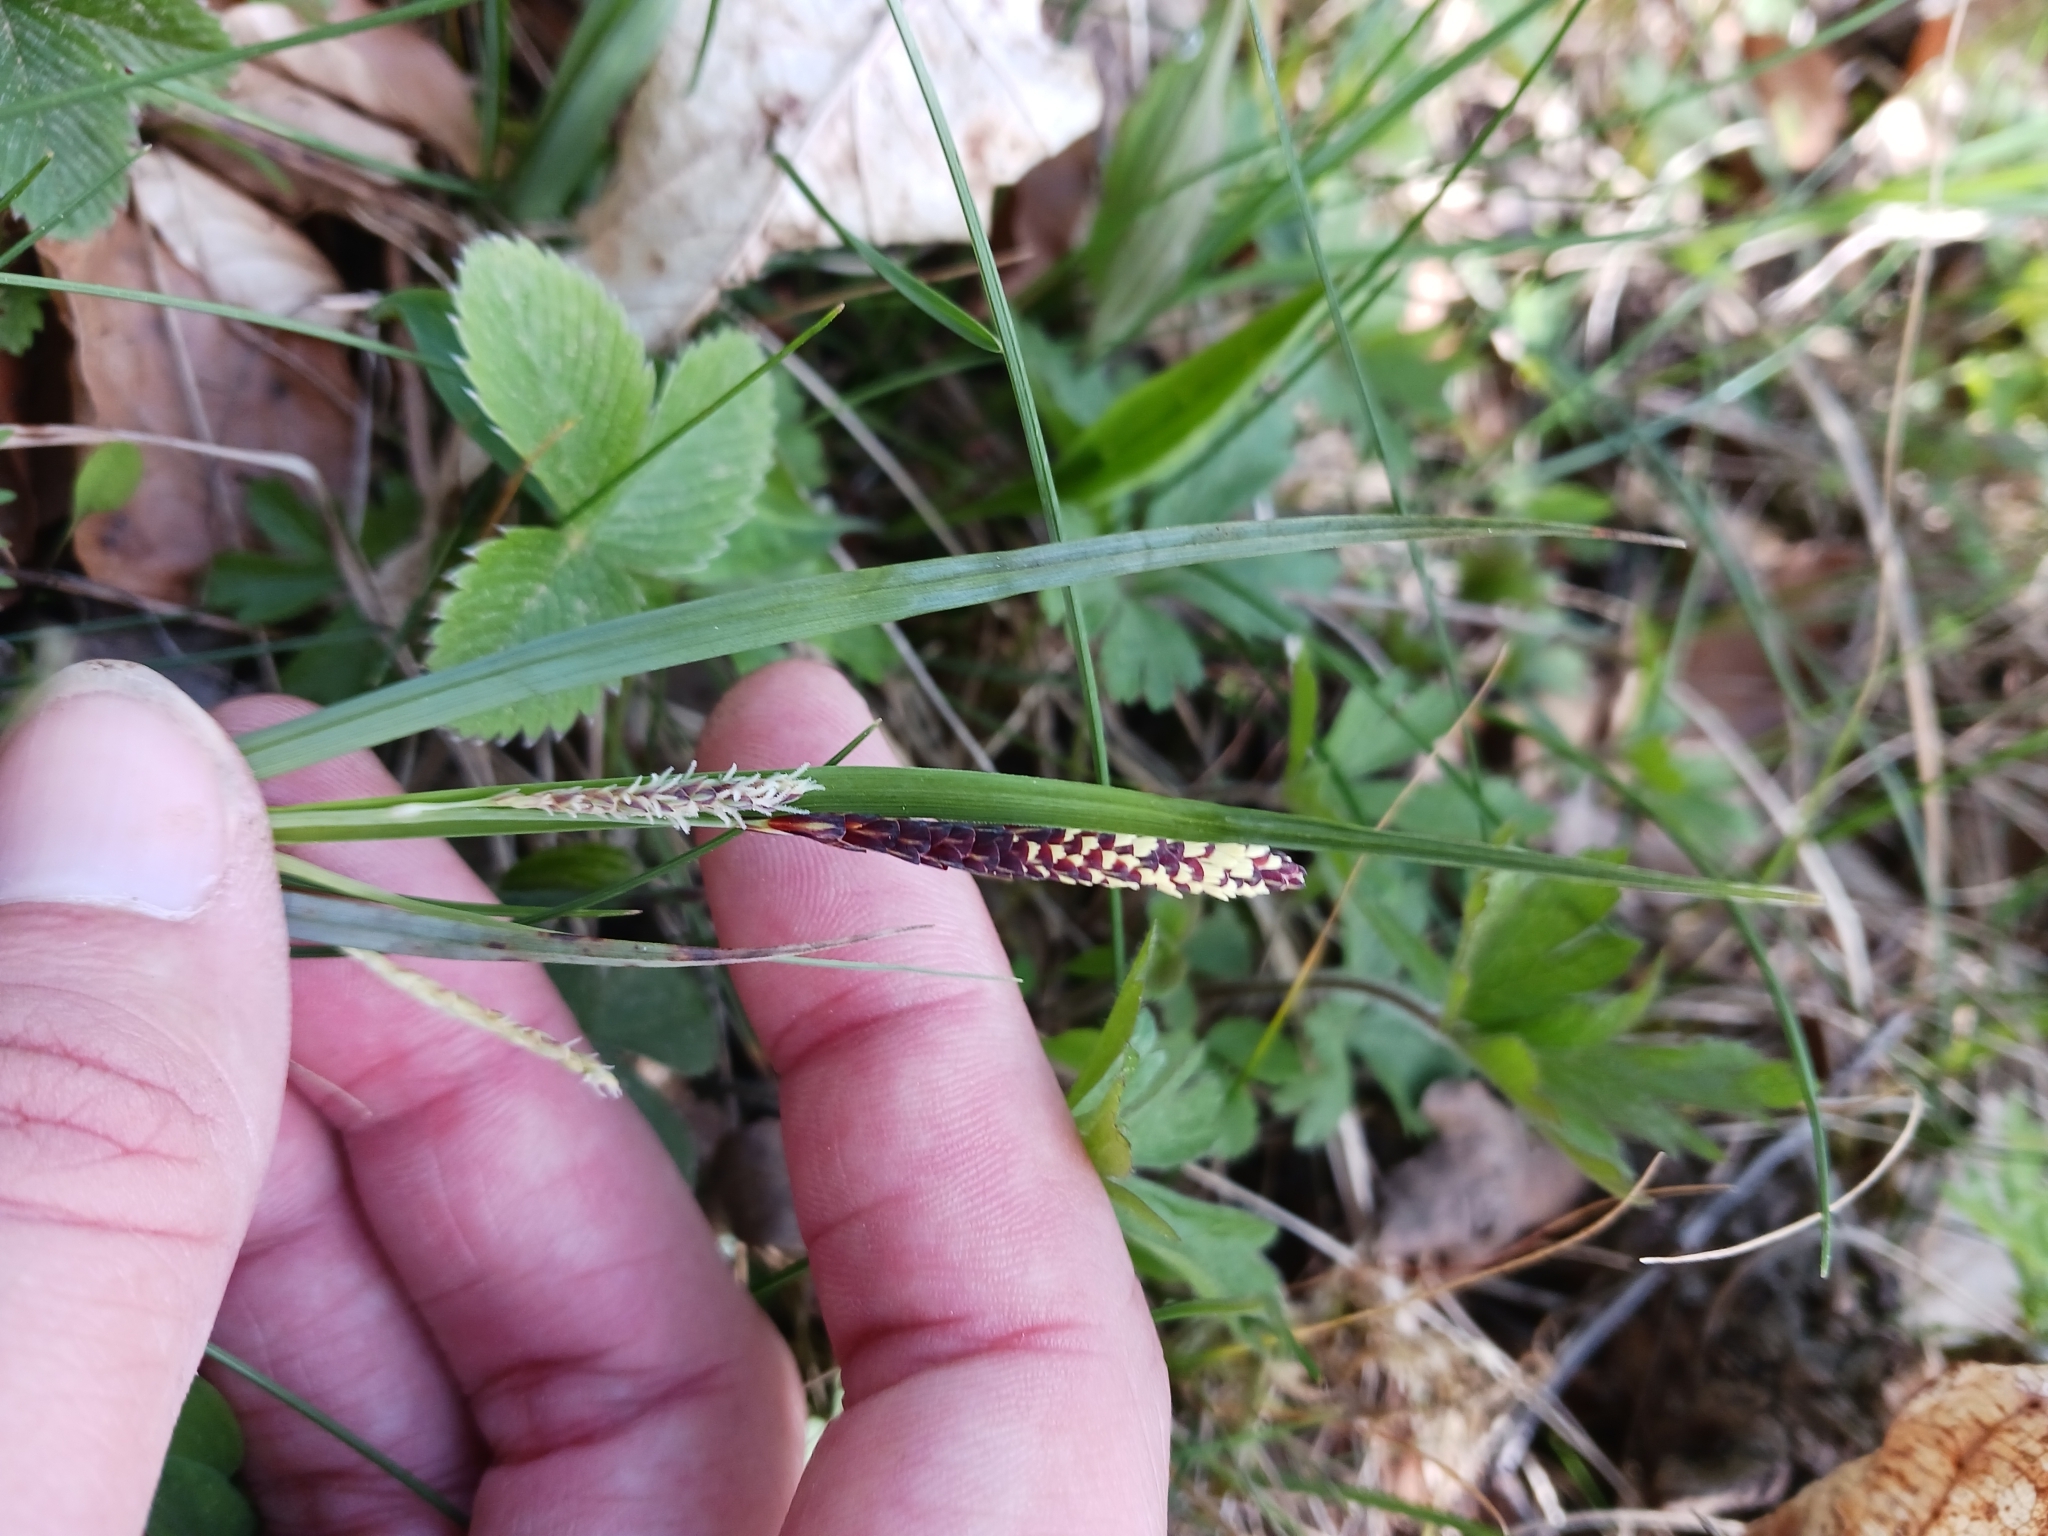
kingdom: Plantae
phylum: Tracheophyta
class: Liliopsida
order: Poales
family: Cyperaceae
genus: Carex
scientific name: Carex flacca
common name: Glaucous sedge
